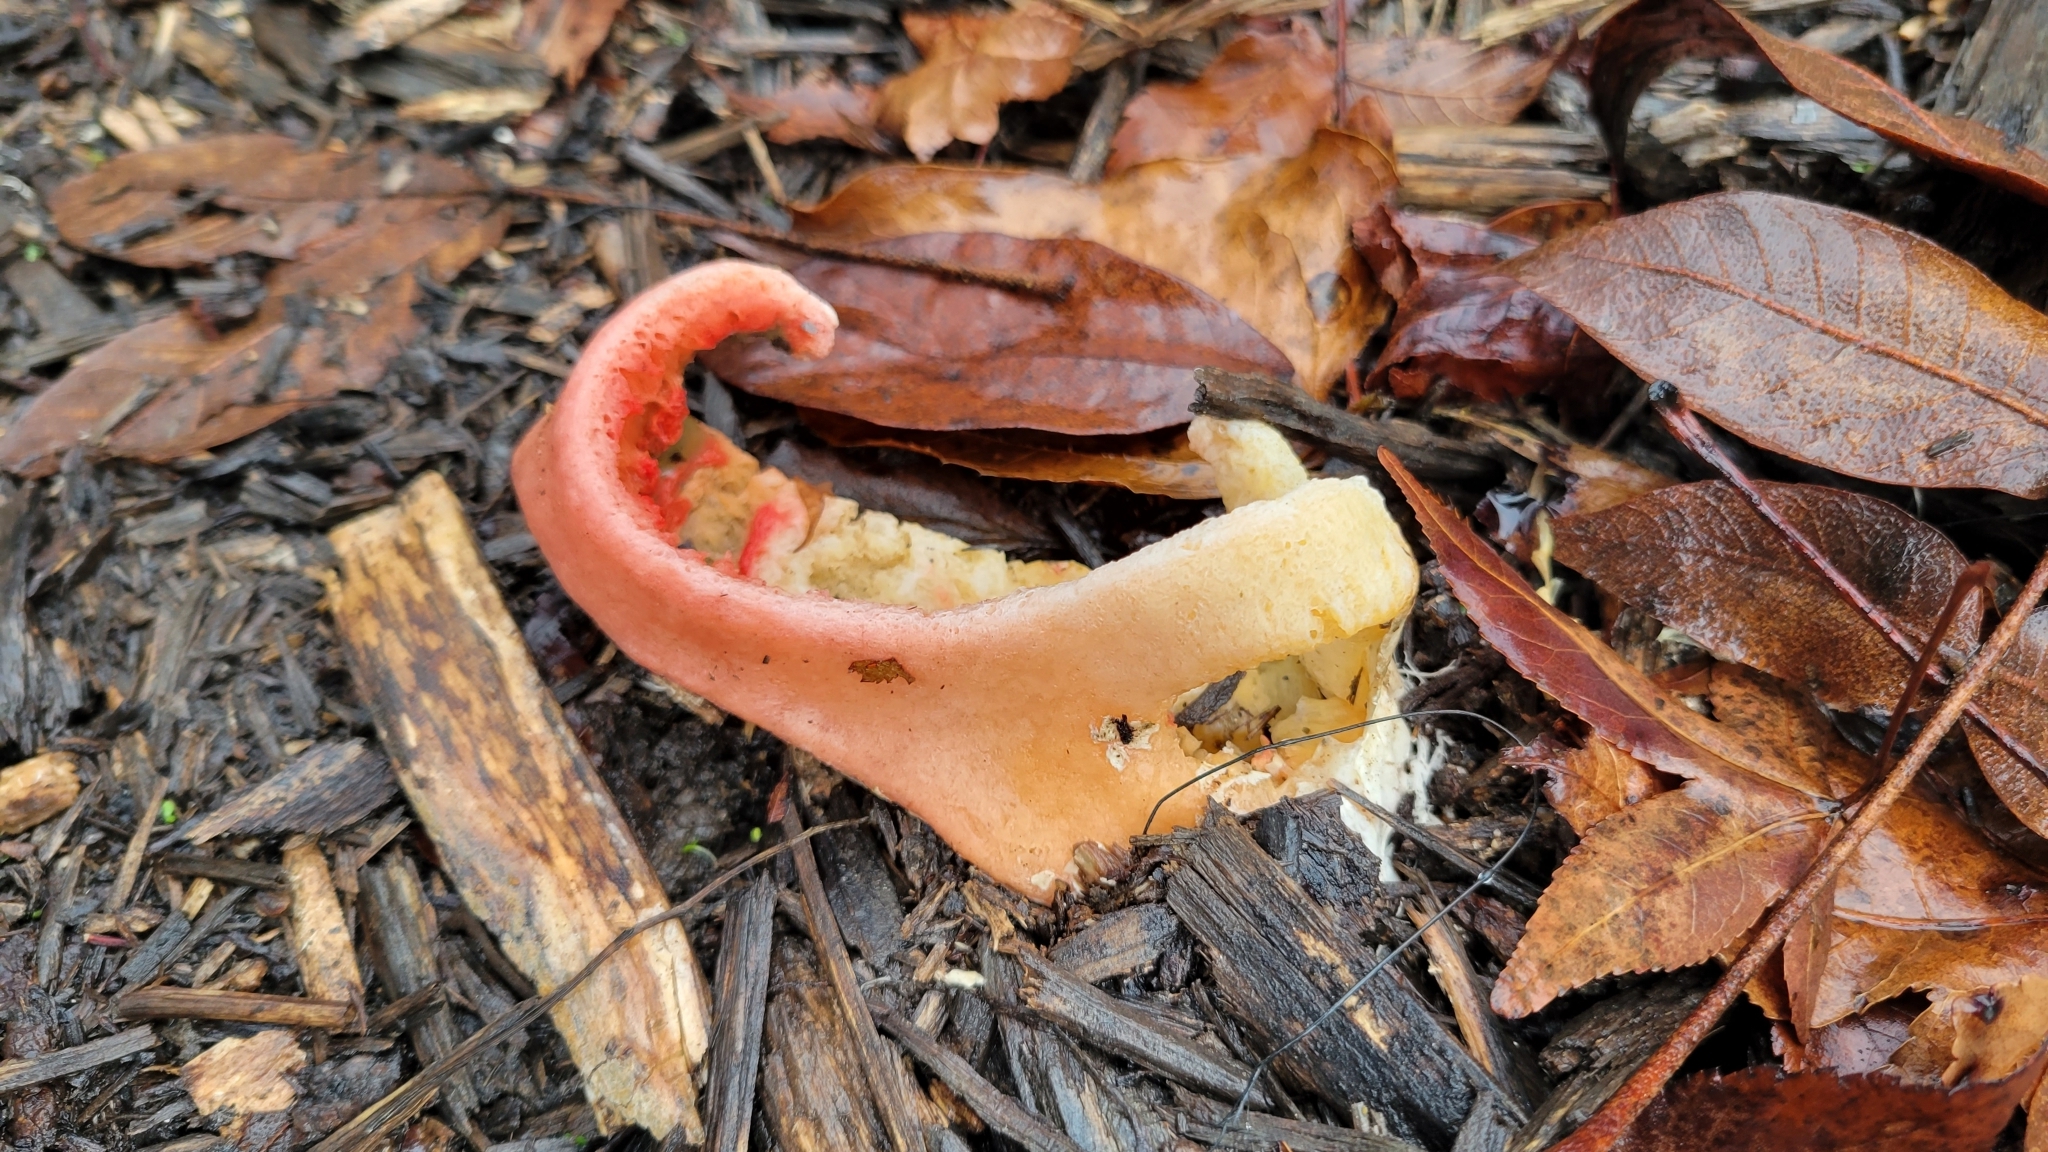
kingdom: Fungi
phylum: Basidiomycota
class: Agaricomycetes
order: Phallales
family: Phallaceae
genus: Clathrus
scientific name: Clathrus columnatus
